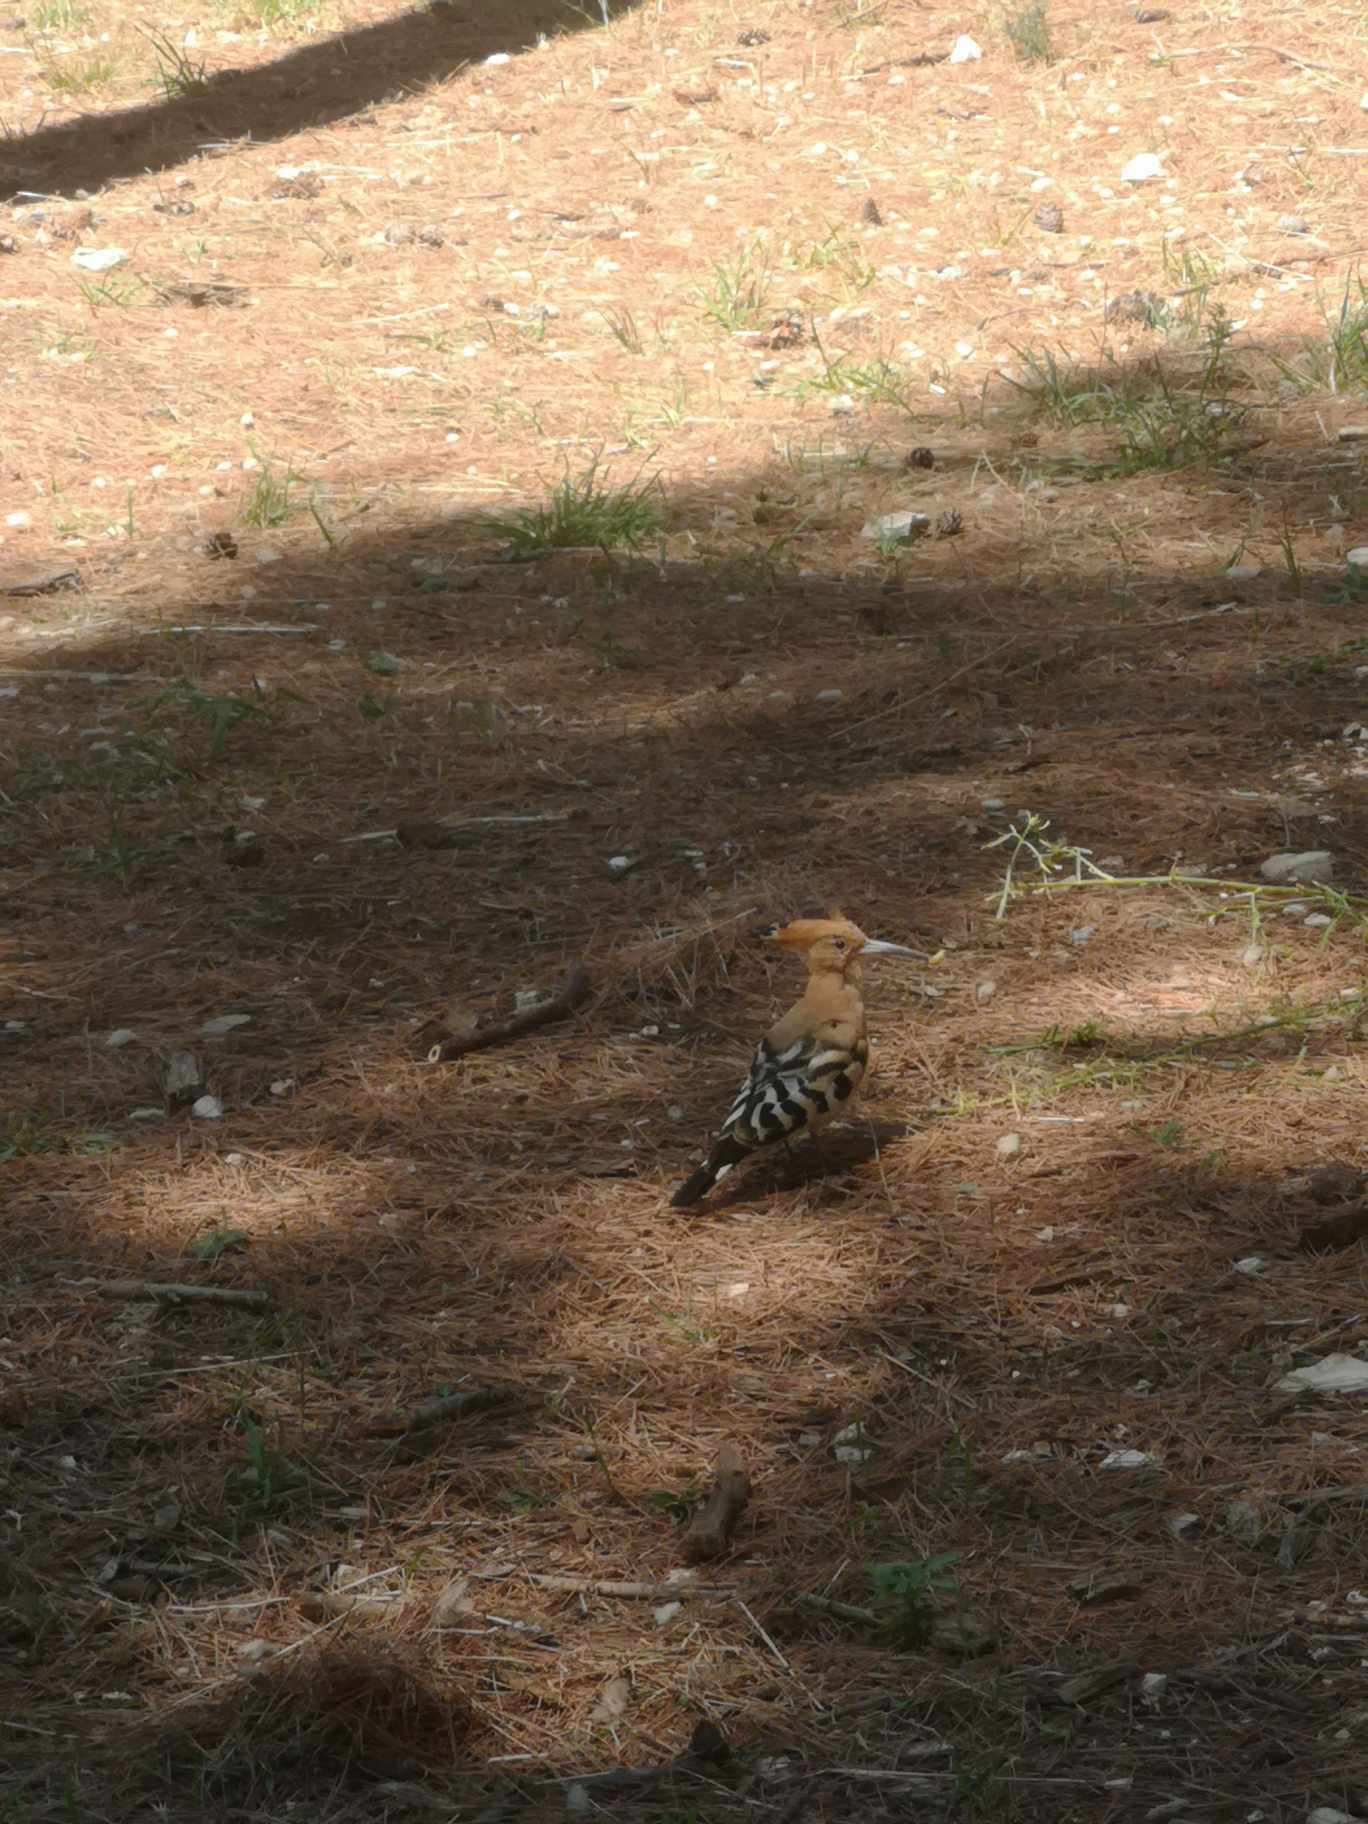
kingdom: Animalia
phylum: Chordata
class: Aves
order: Bucerotiformes
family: Upupidae
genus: Upupa
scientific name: Upupa epops
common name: Eurasian hoopoe
